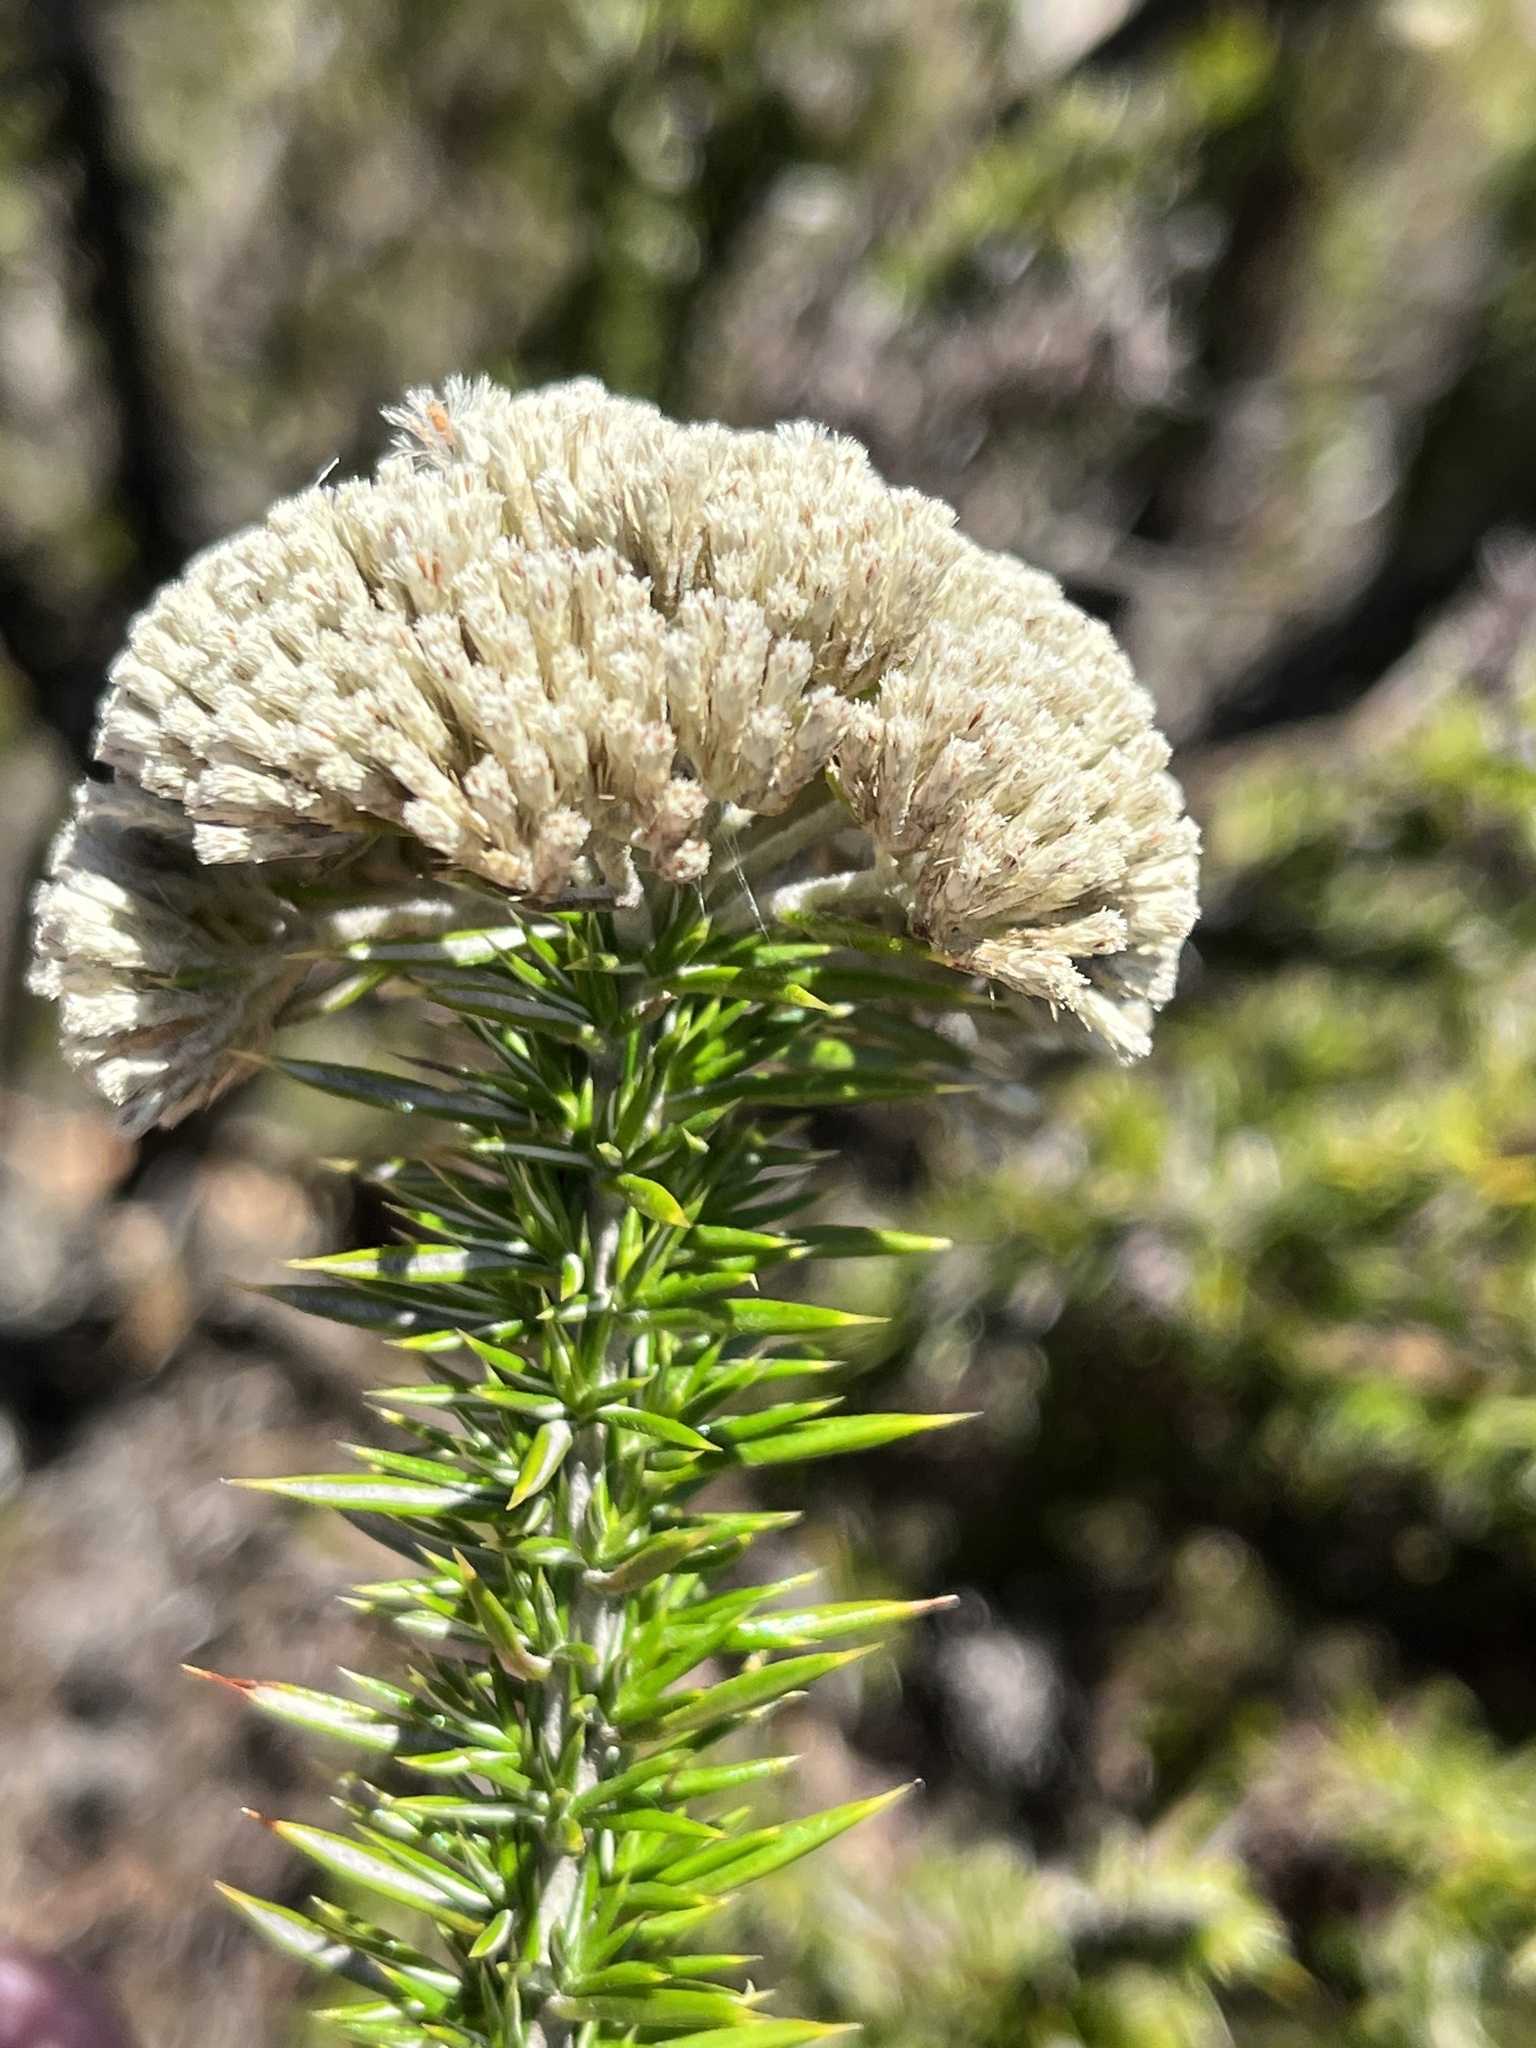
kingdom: Plantae
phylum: Tracheophyta
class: Magnoliopsida
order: Asterales
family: Asteraceae
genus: Metalasia
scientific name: Metalasia trivialis
